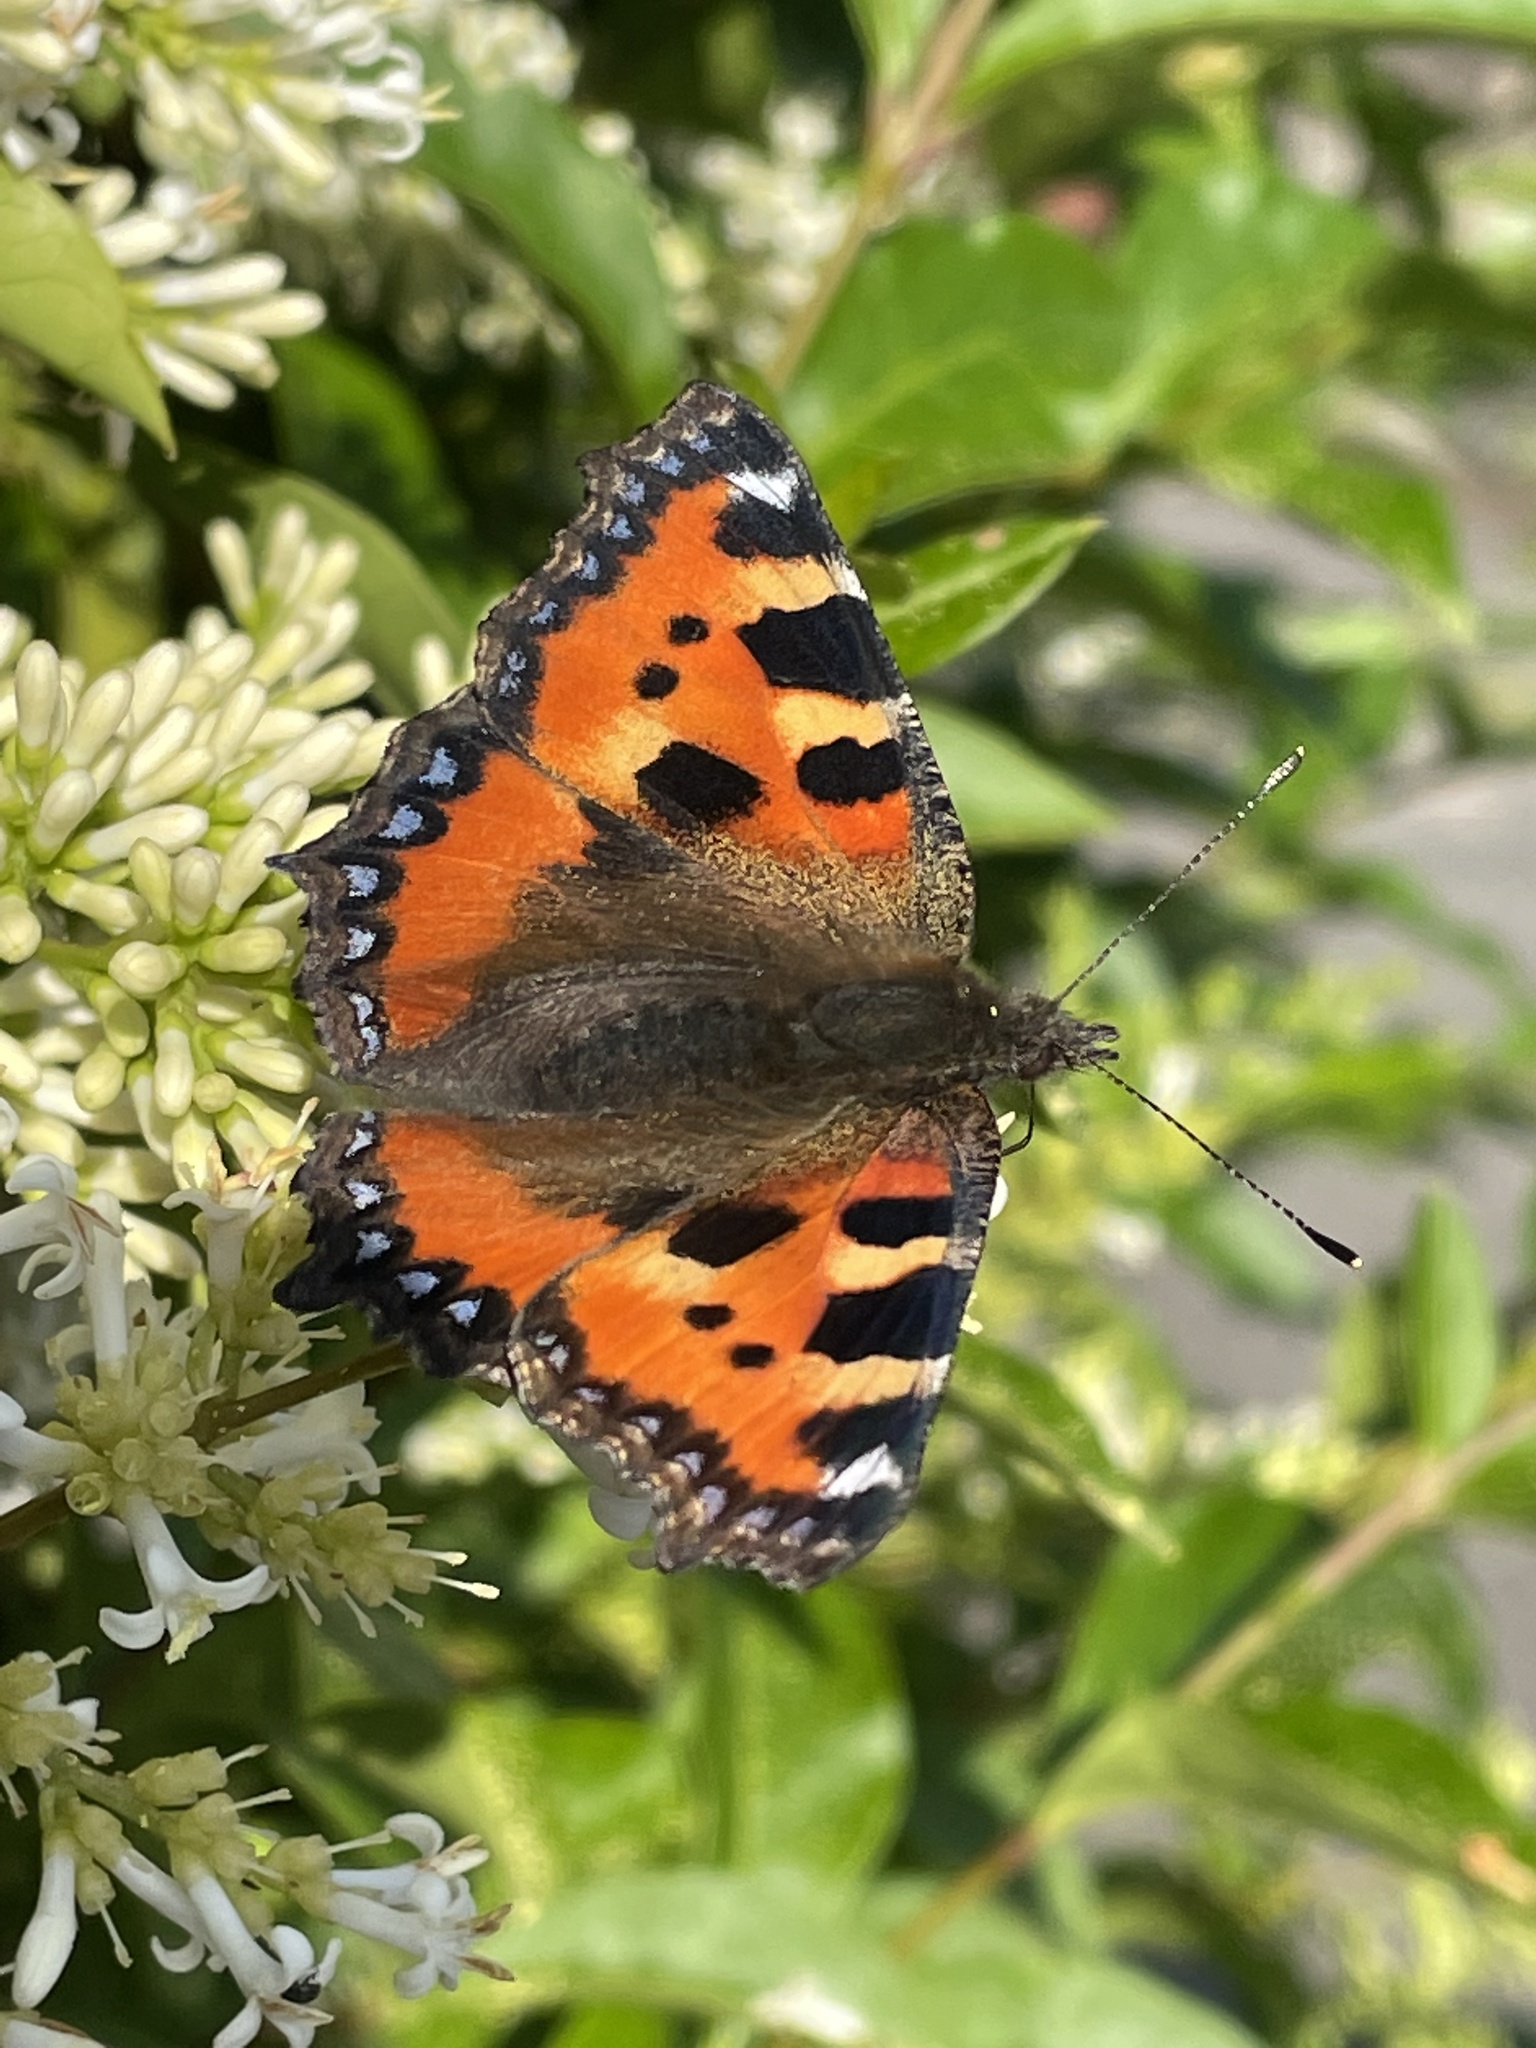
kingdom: Animalia
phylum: Arthropoda
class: Insecta
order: Lepidoptera
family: Nymphalidae
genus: Aglais
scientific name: Aglais urticae
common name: Small tortoiseshell
